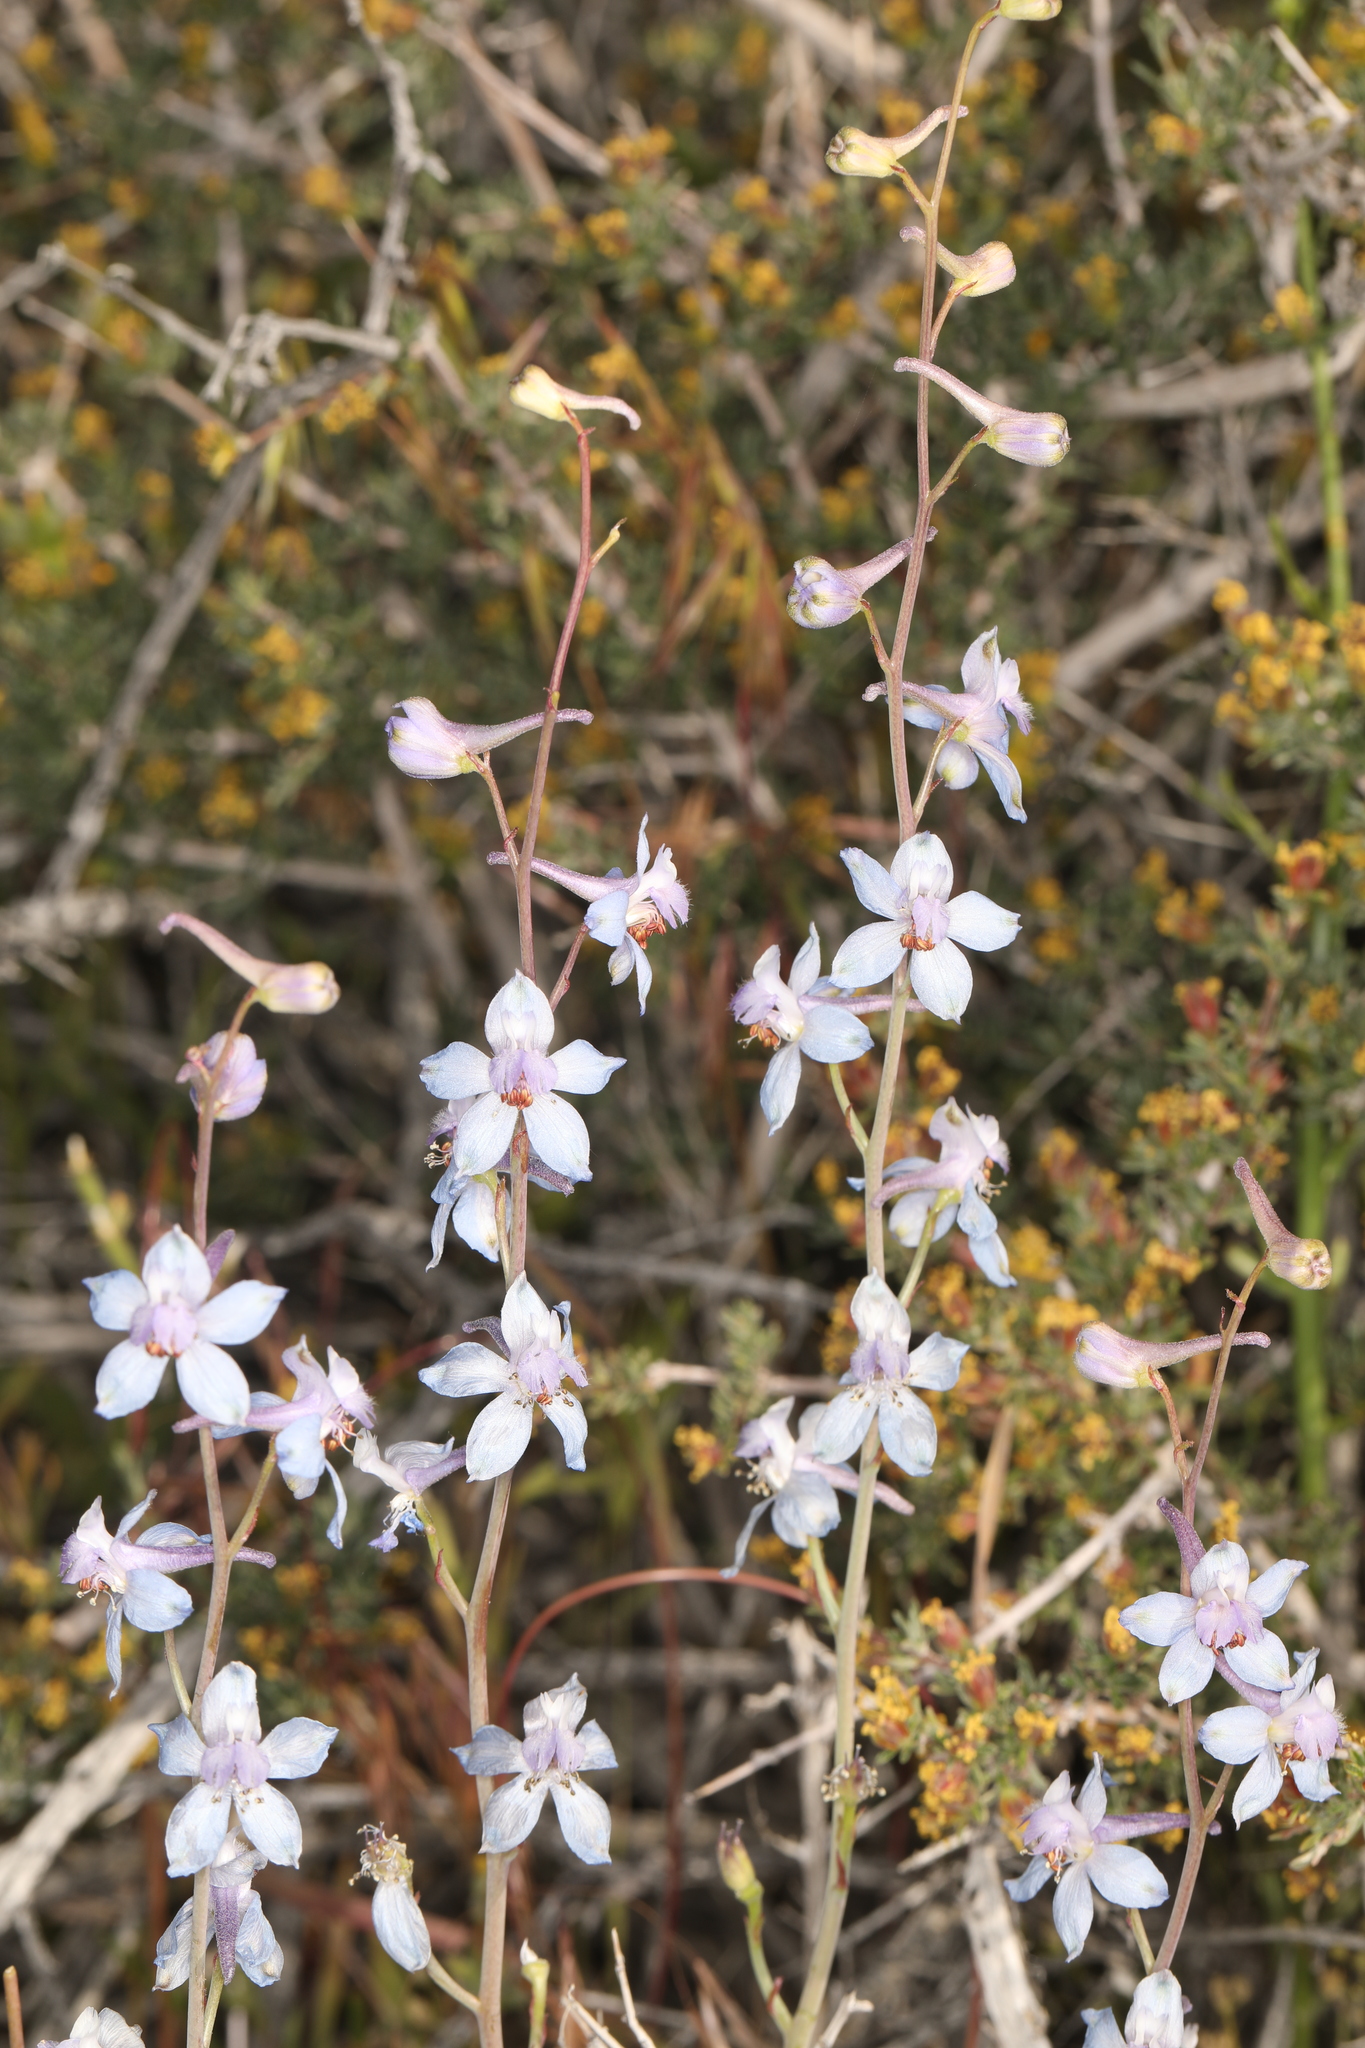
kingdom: Plantae
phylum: Tracheophyta
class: Magnoliopsida
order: Ranunculales
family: Ranunculaceae
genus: Delphinium
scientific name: Delphinium parishii
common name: Apache larkspur
